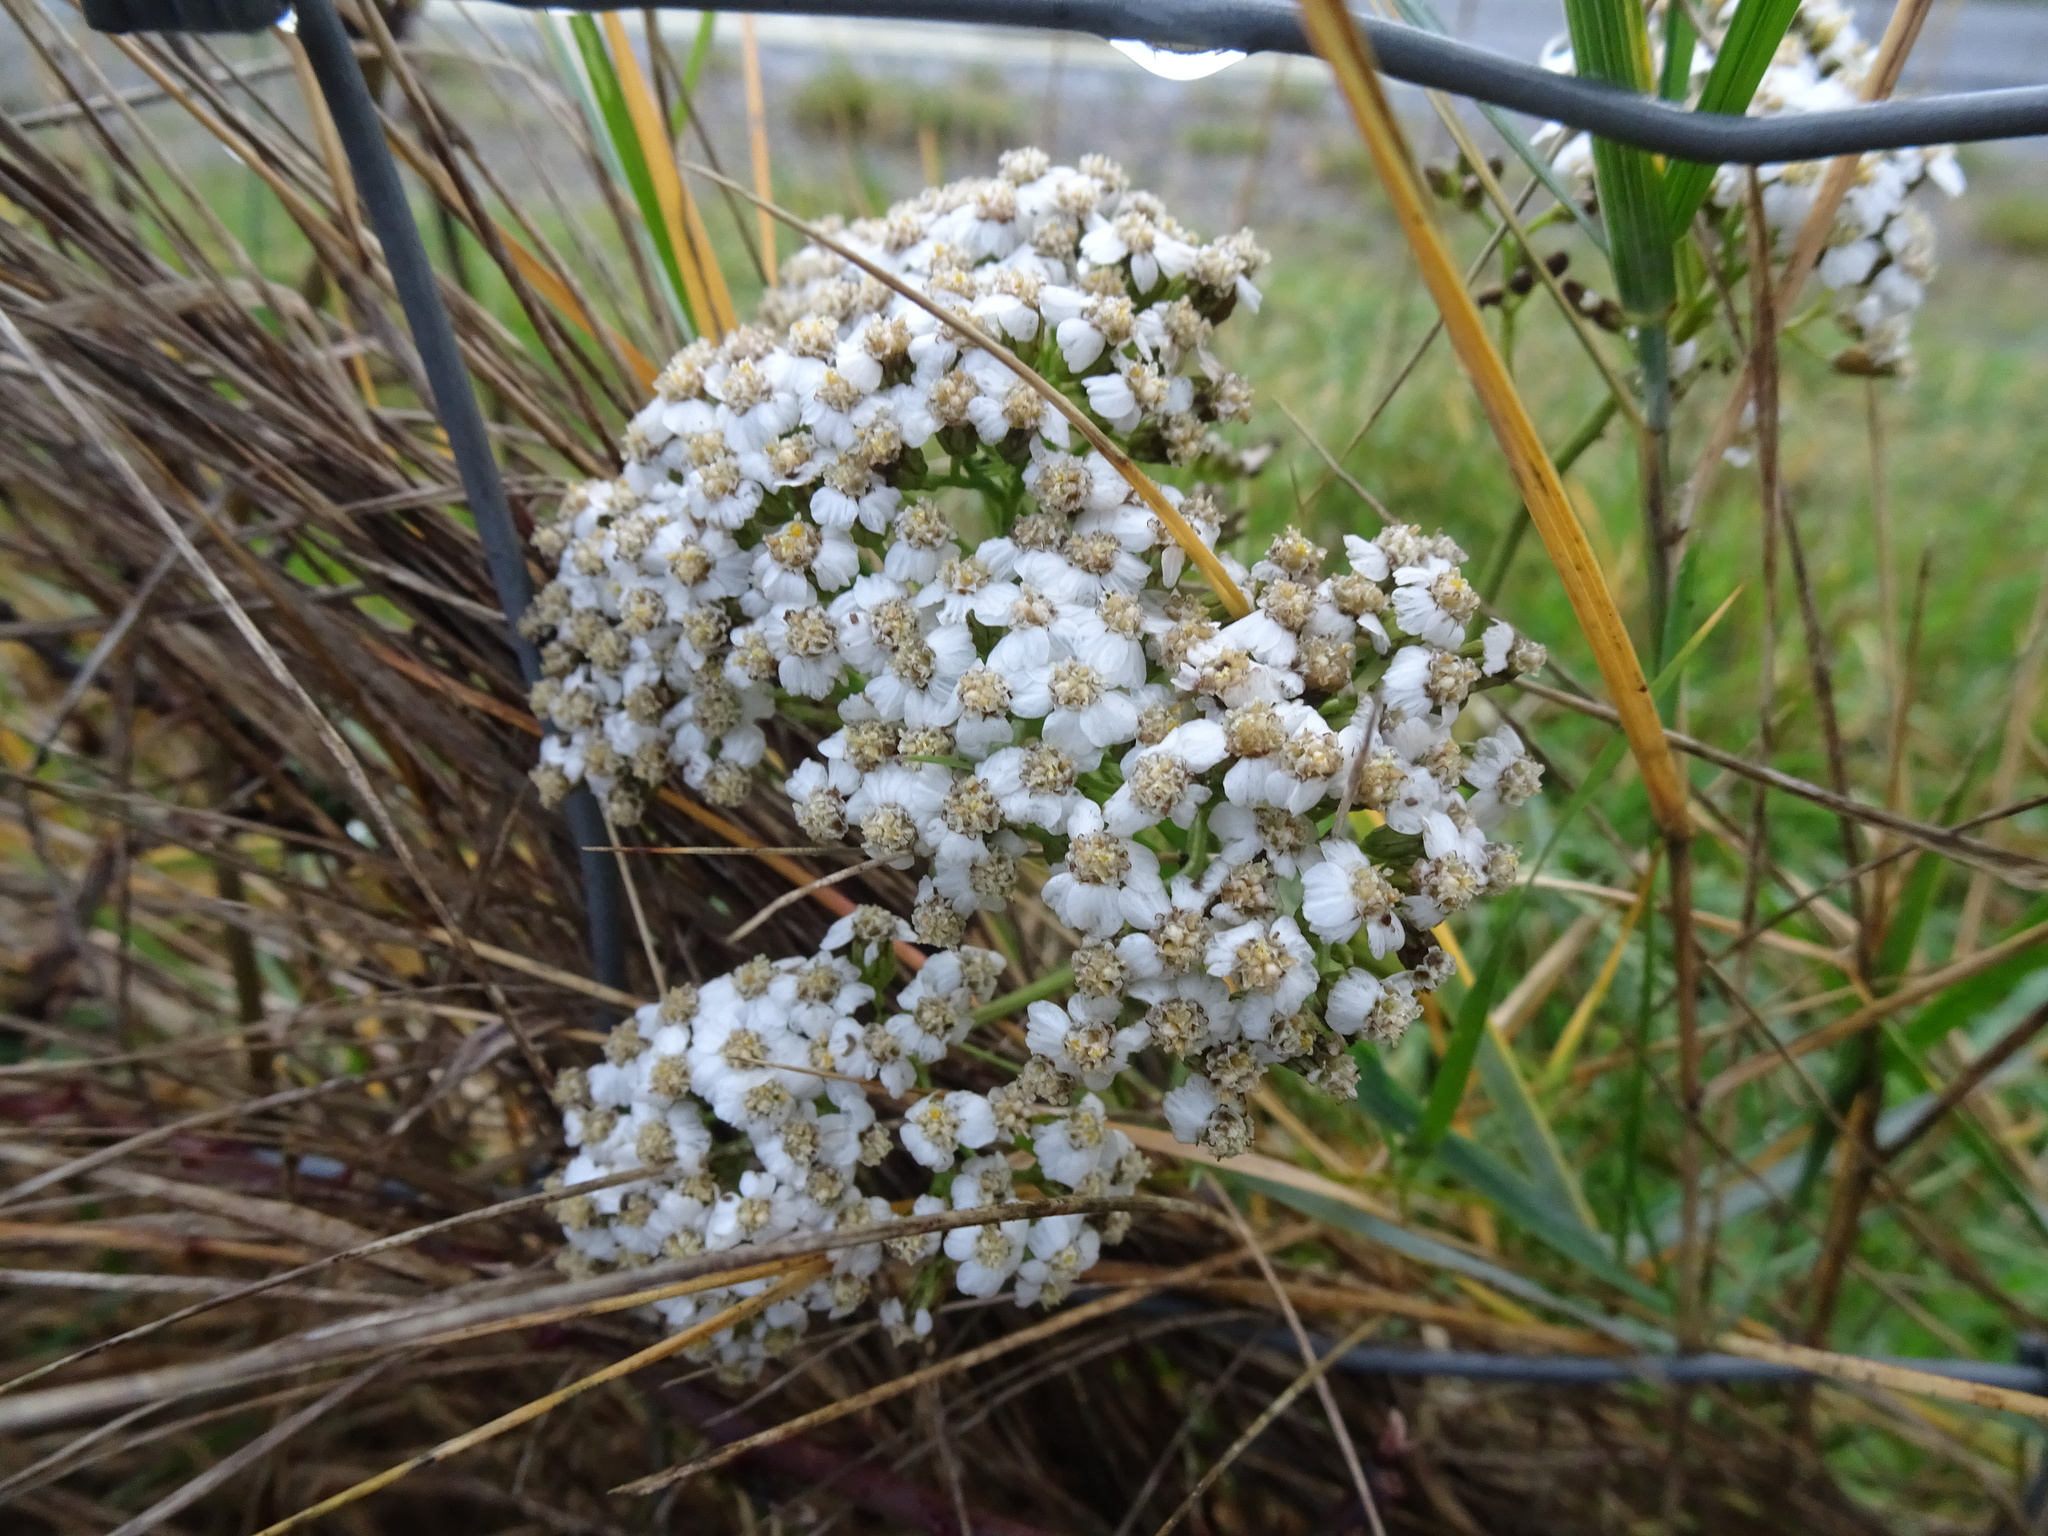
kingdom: Plantae
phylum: Tracheophyta
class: Magnoliopsida
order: Asterales
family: Asteraceae
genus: Achillea
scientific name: Achillea millefolium
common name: Yarrow
